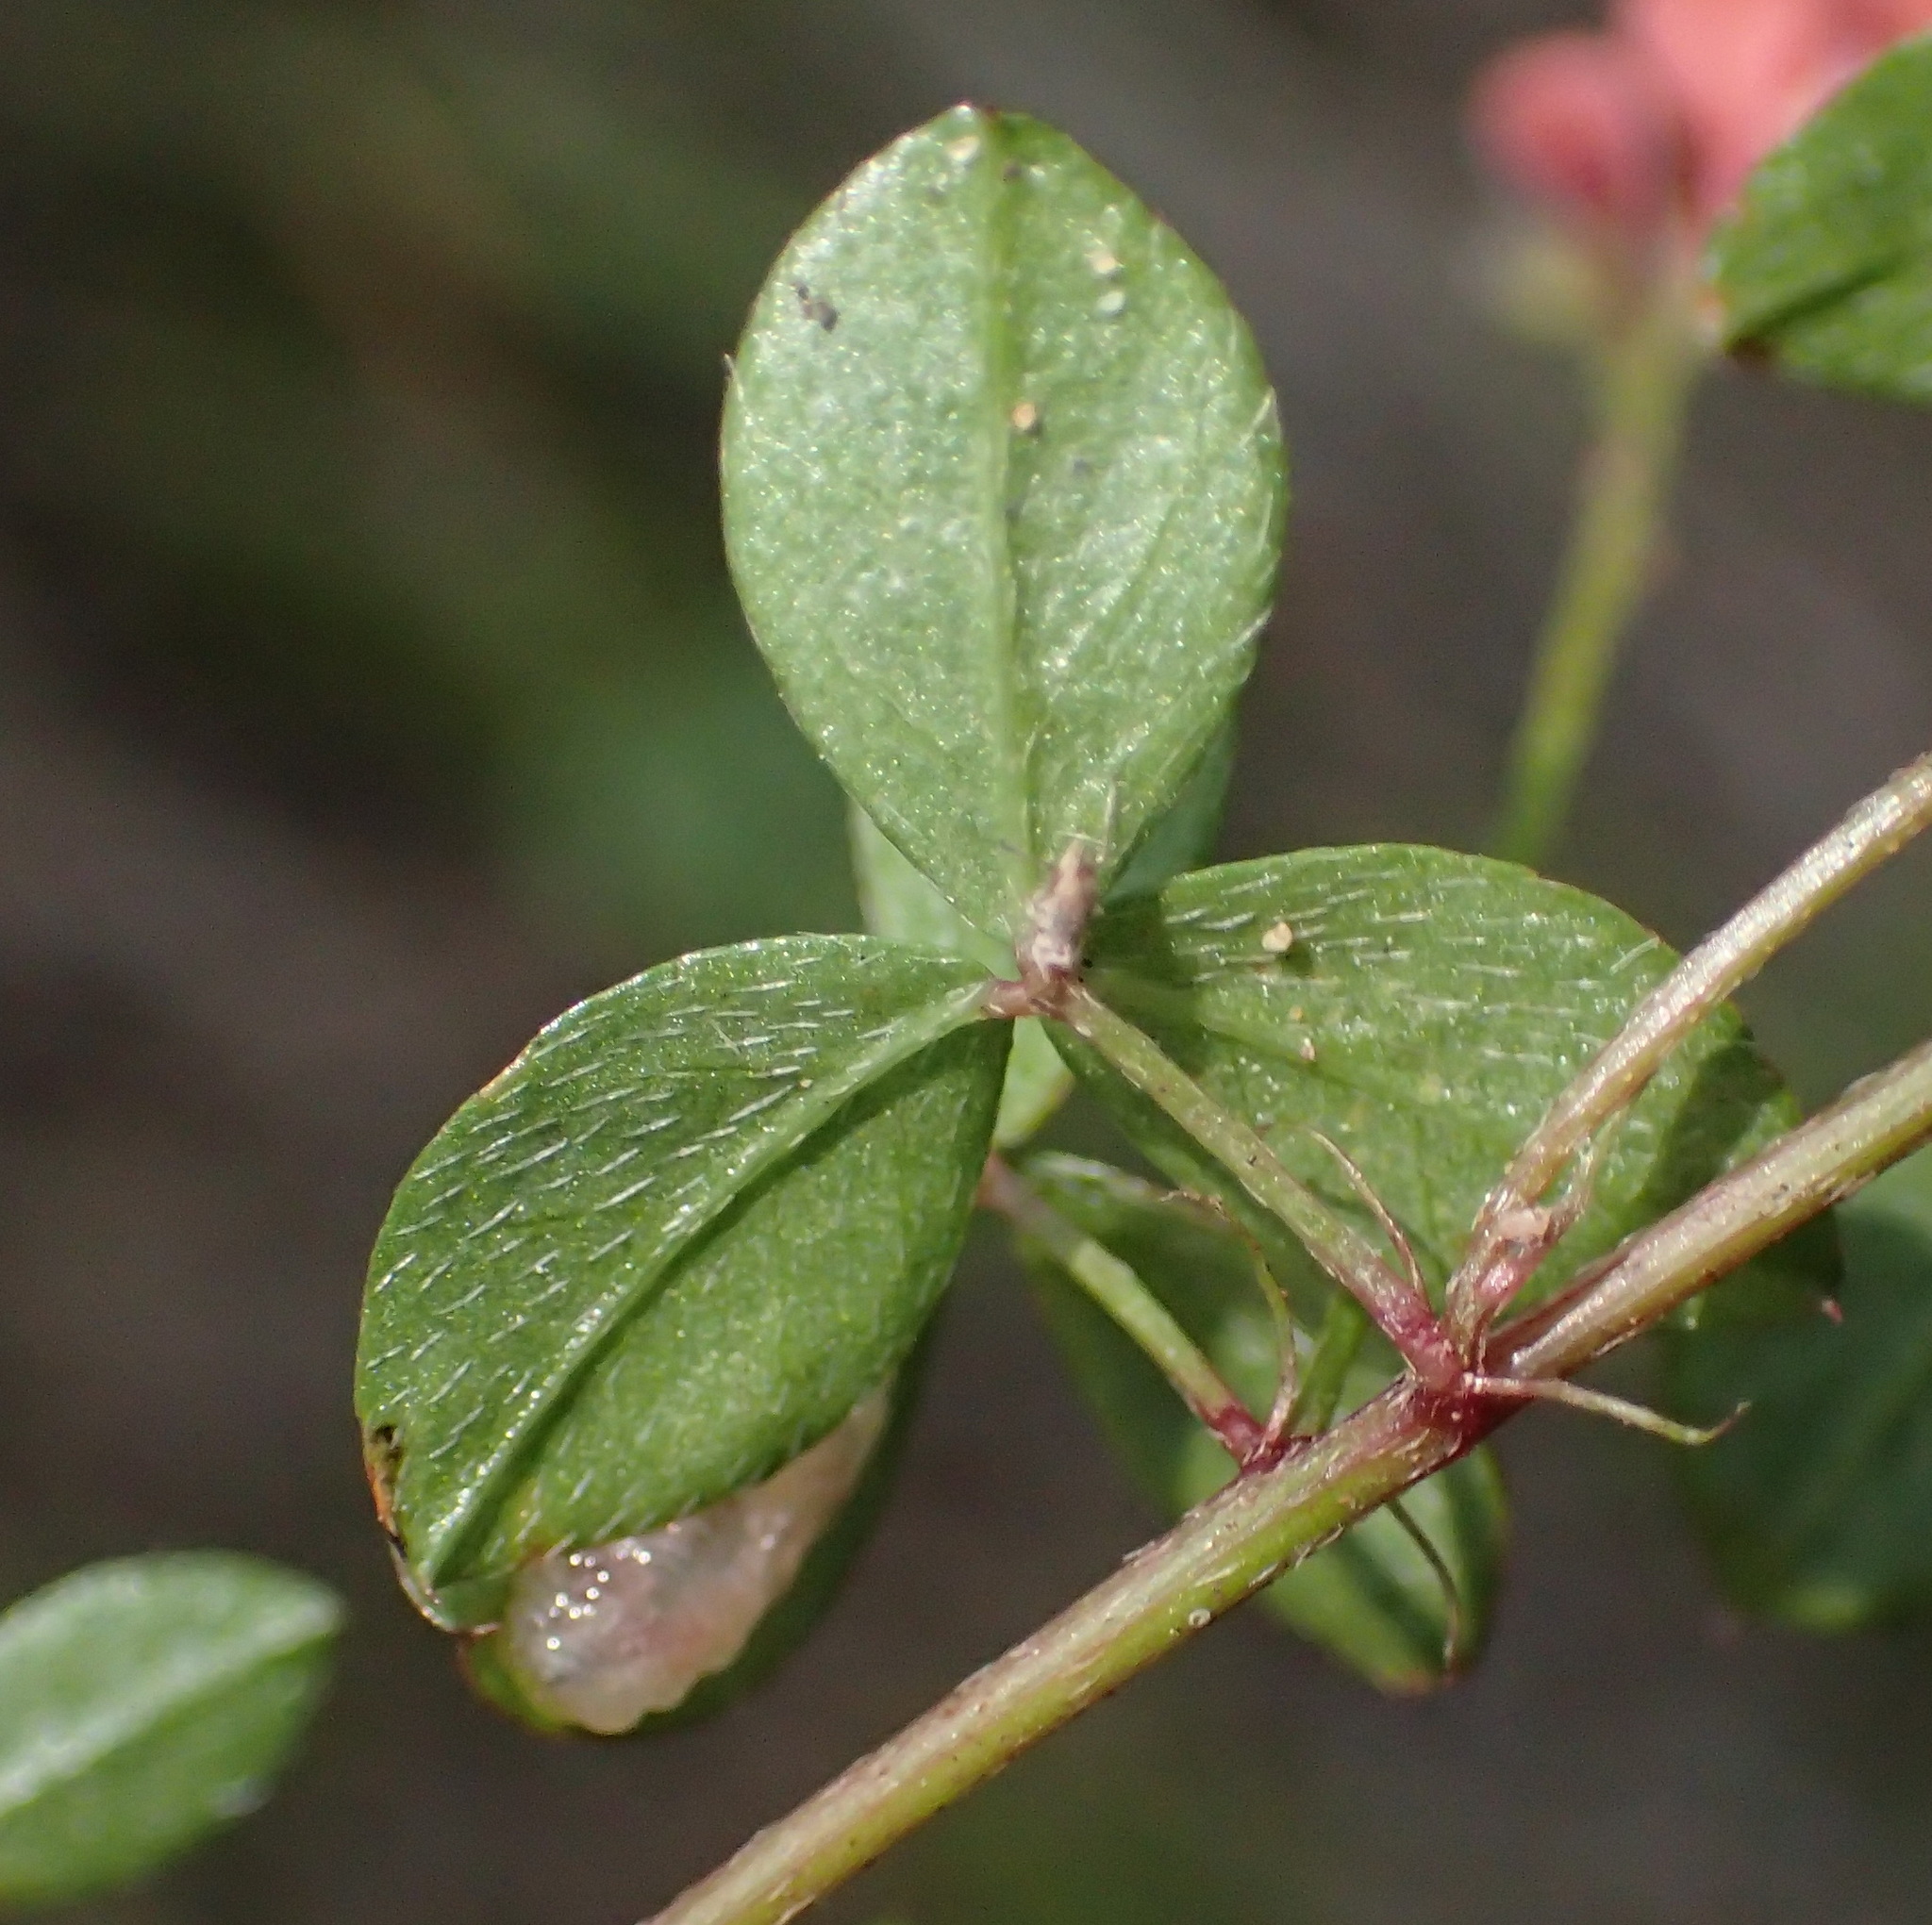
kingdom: Plantae
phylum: Tracheophyta
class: Magnoliopsida
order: Fabales
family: Fabaceae
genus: Indigofera
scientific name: Indigofera erecta
